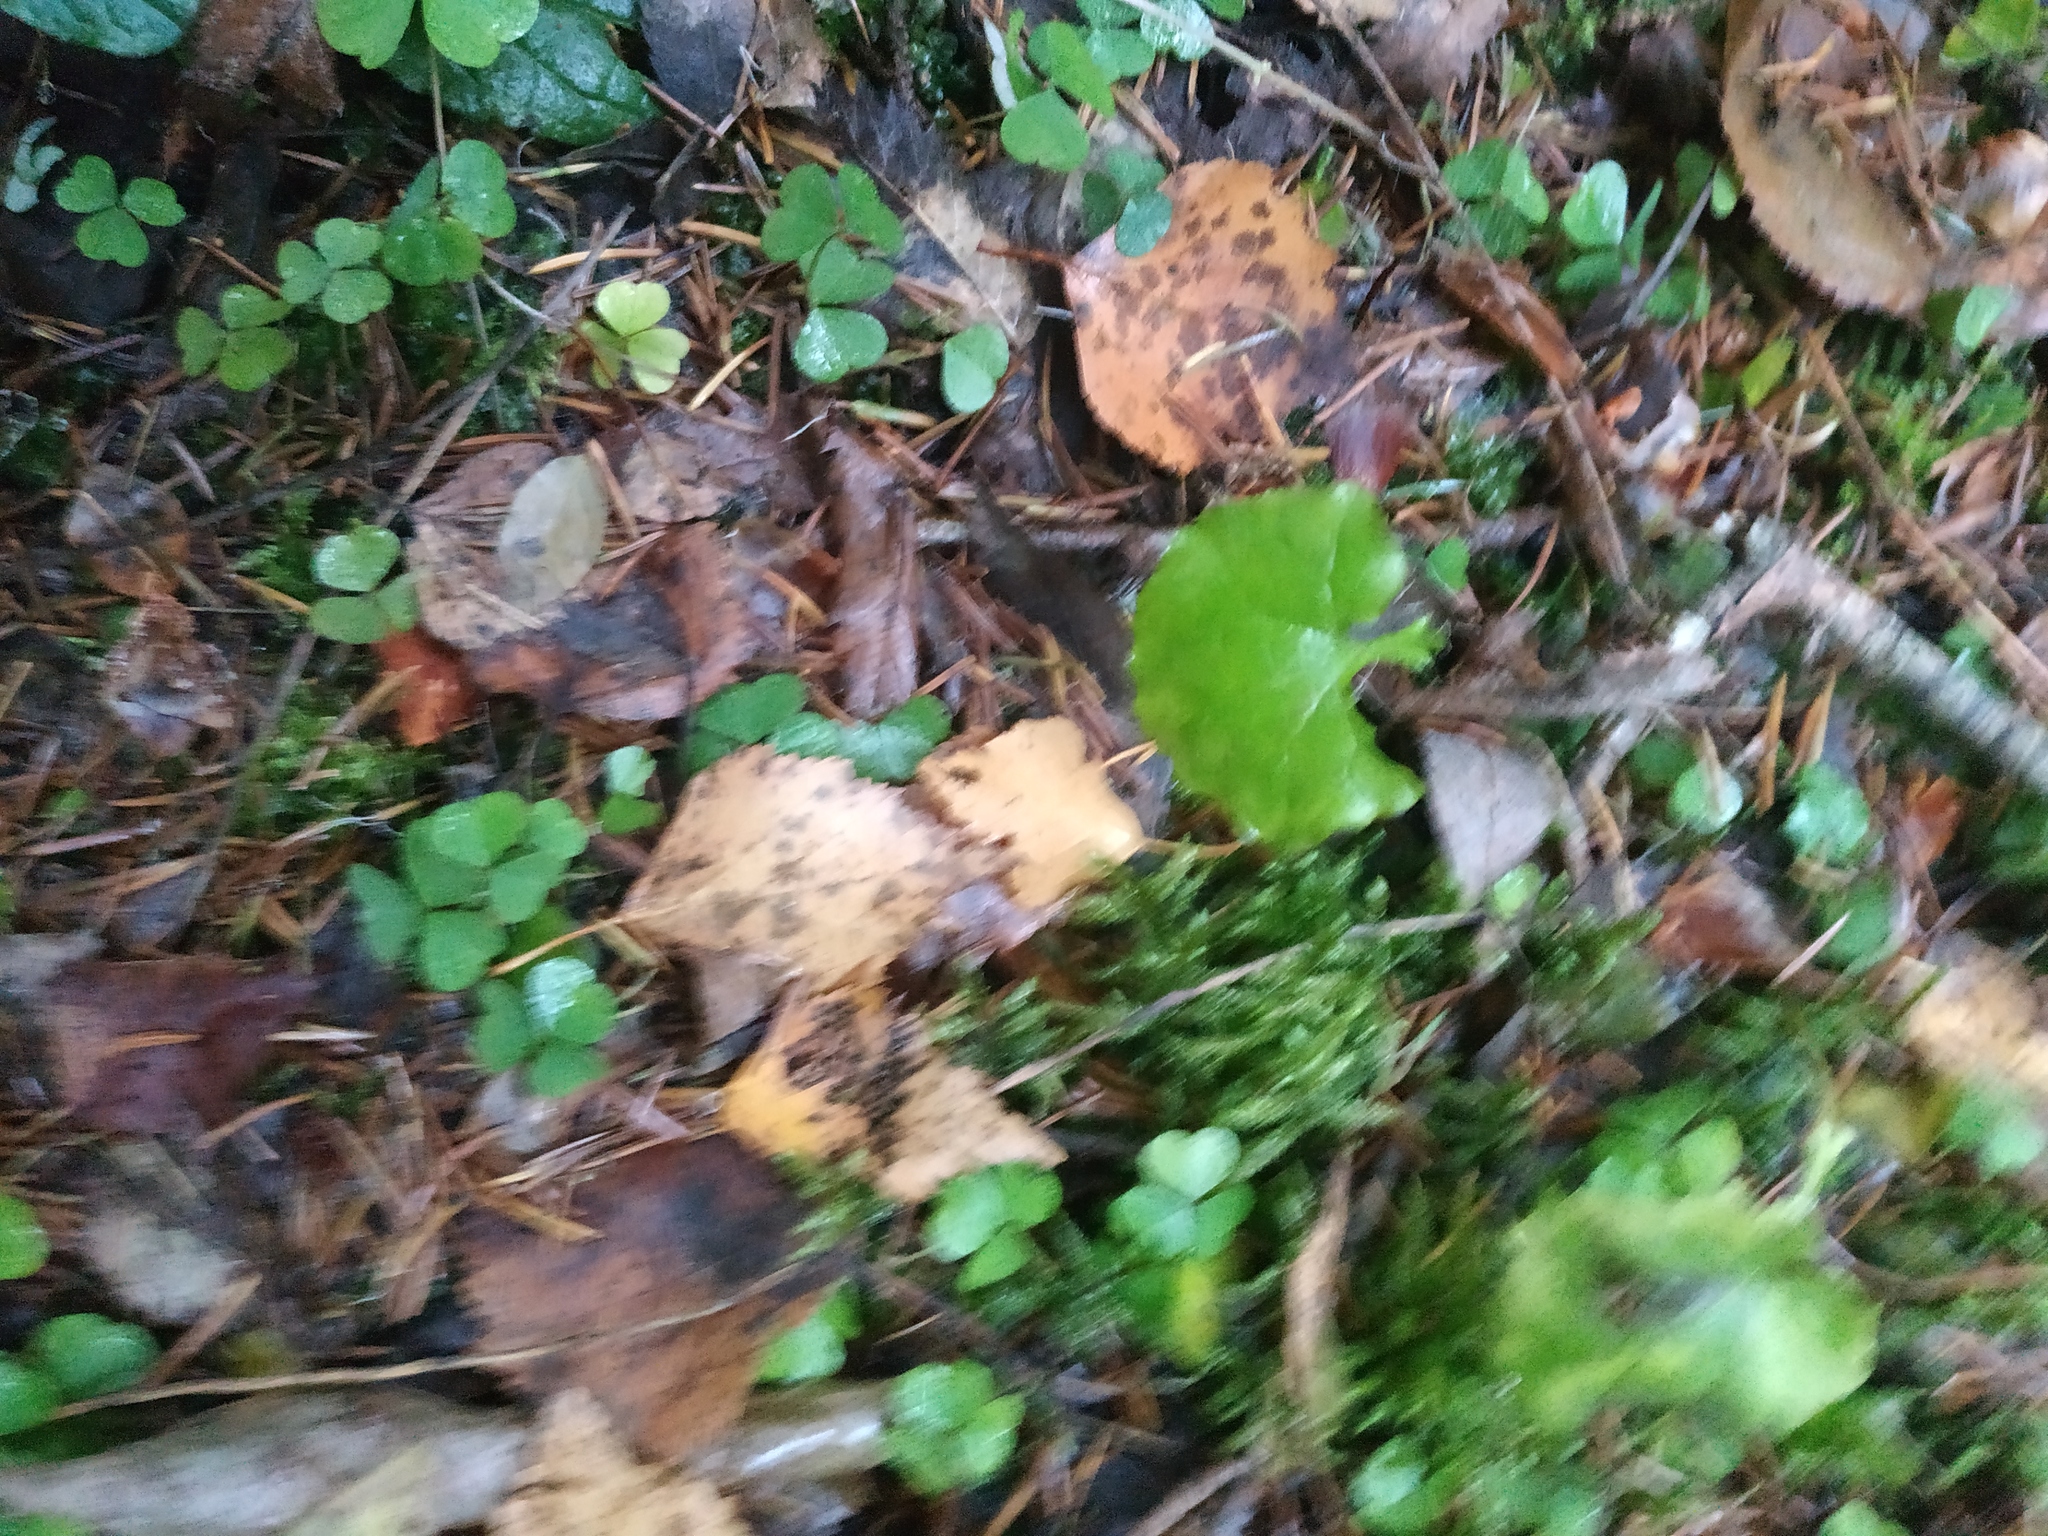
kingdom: Plantae
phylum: Tracheophyta
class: Magnoliopsida
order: Asterales
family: Asteraceae
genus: Mycelis
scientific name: Mycelis muralis
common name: Wall lettuce
